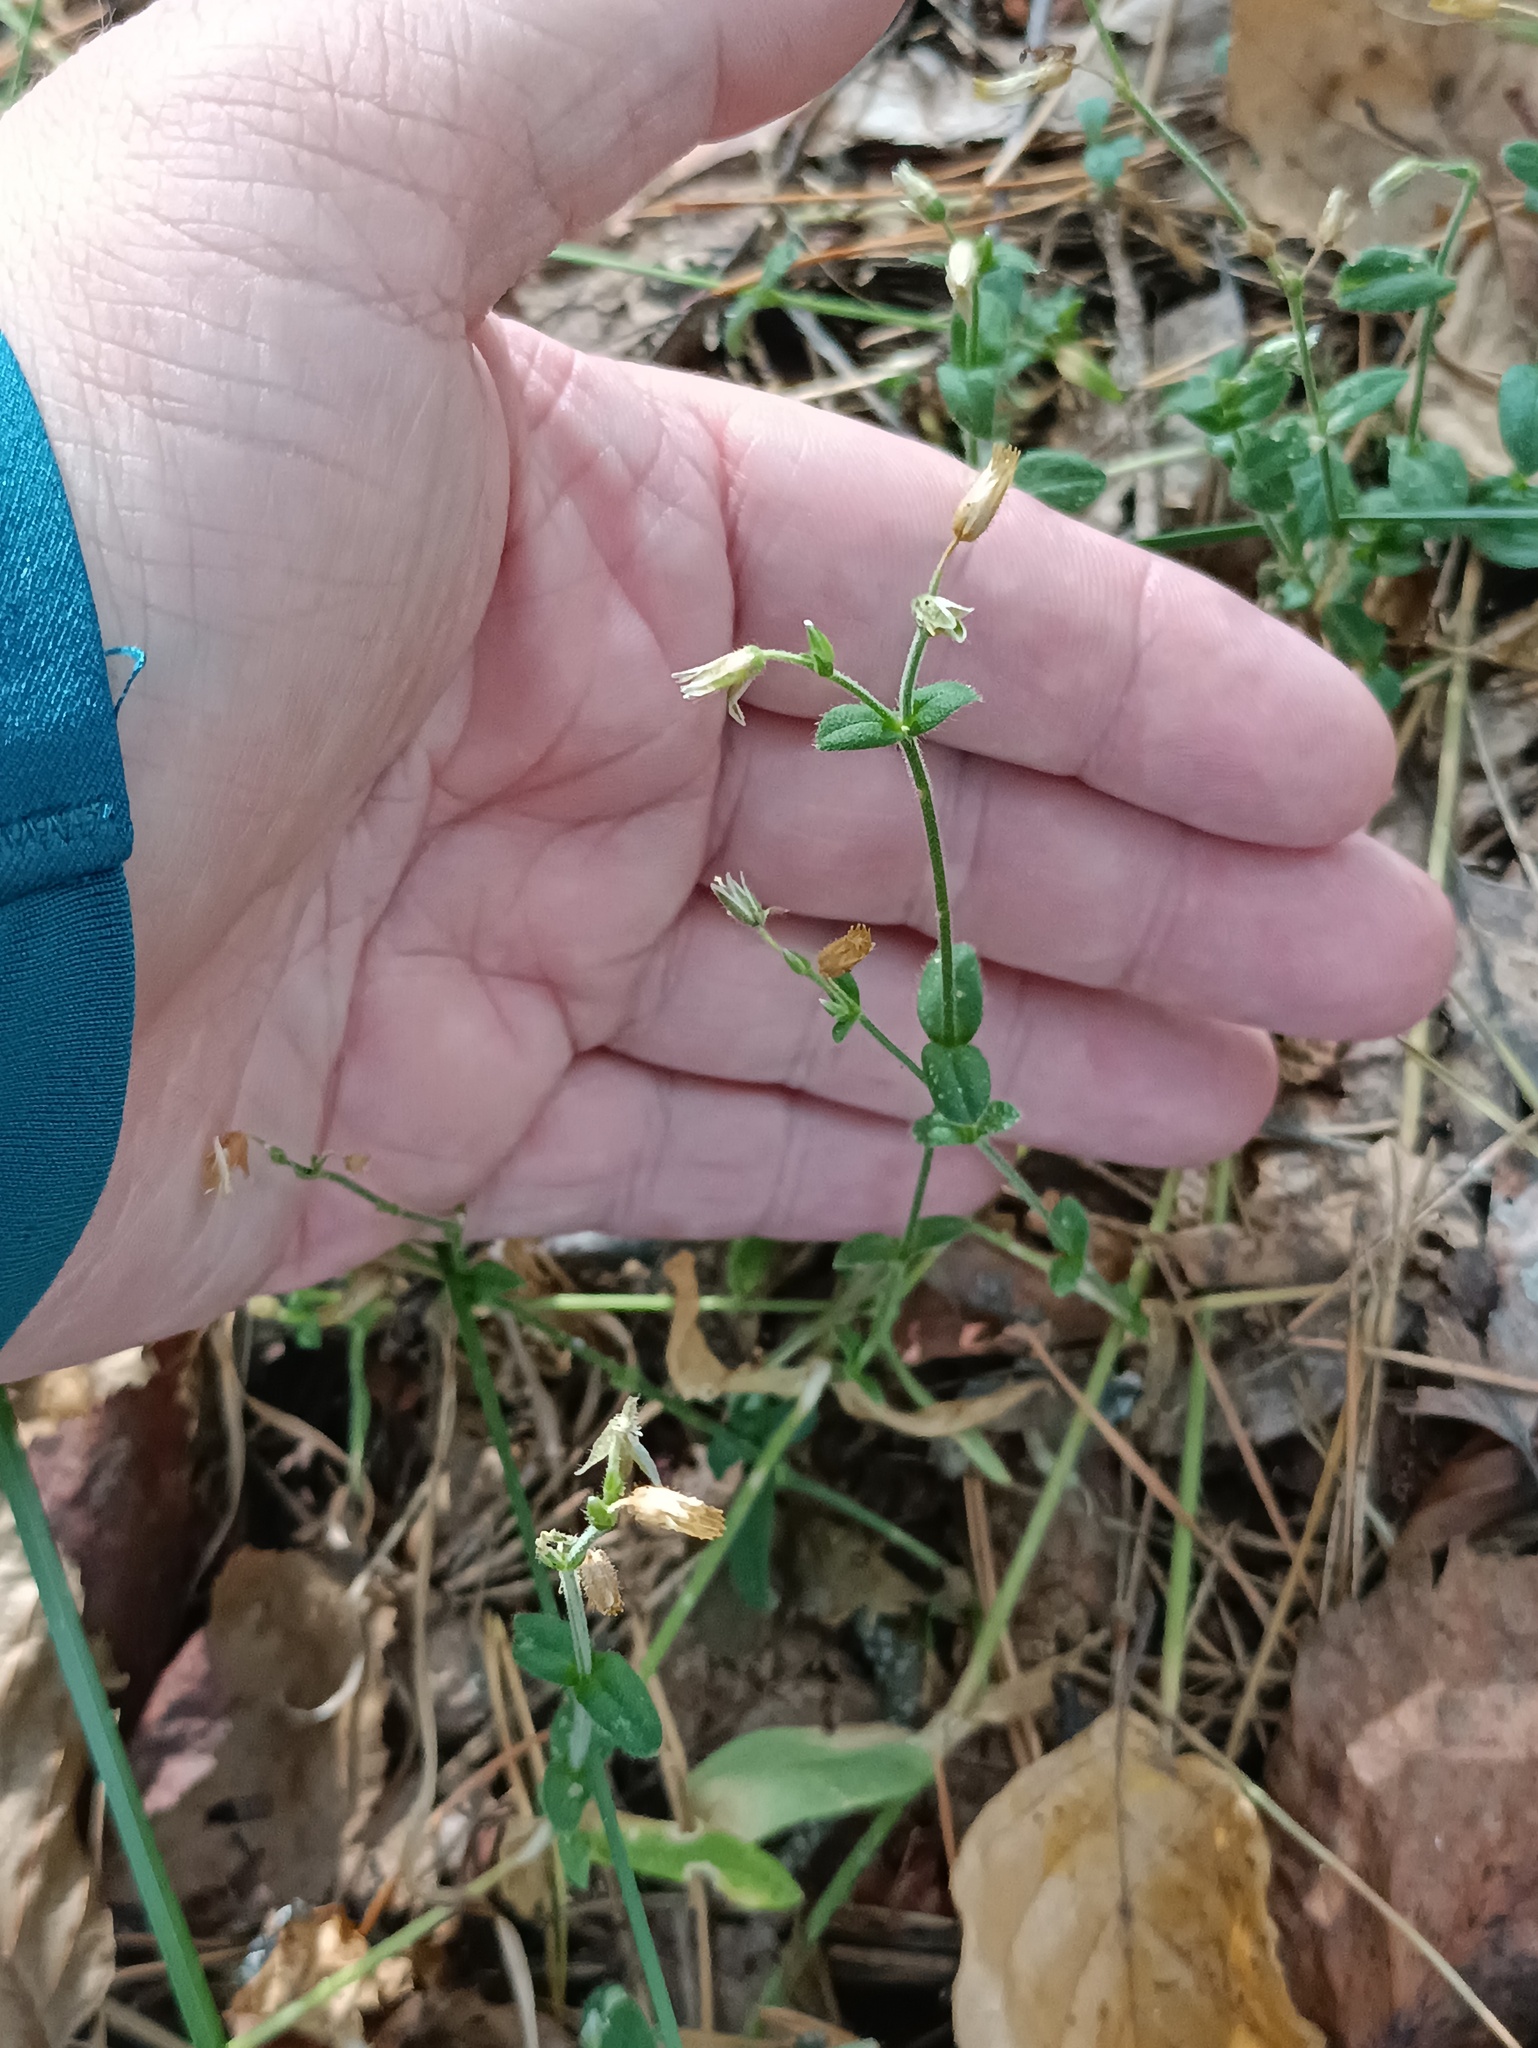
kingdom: Plantae
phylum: Tracheophyta
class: Magnoliopsida
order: Caryophyllales
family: Caryophyllaceae
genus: Cerastium
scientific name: Cerastium holosteoides
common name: Big chickweed
